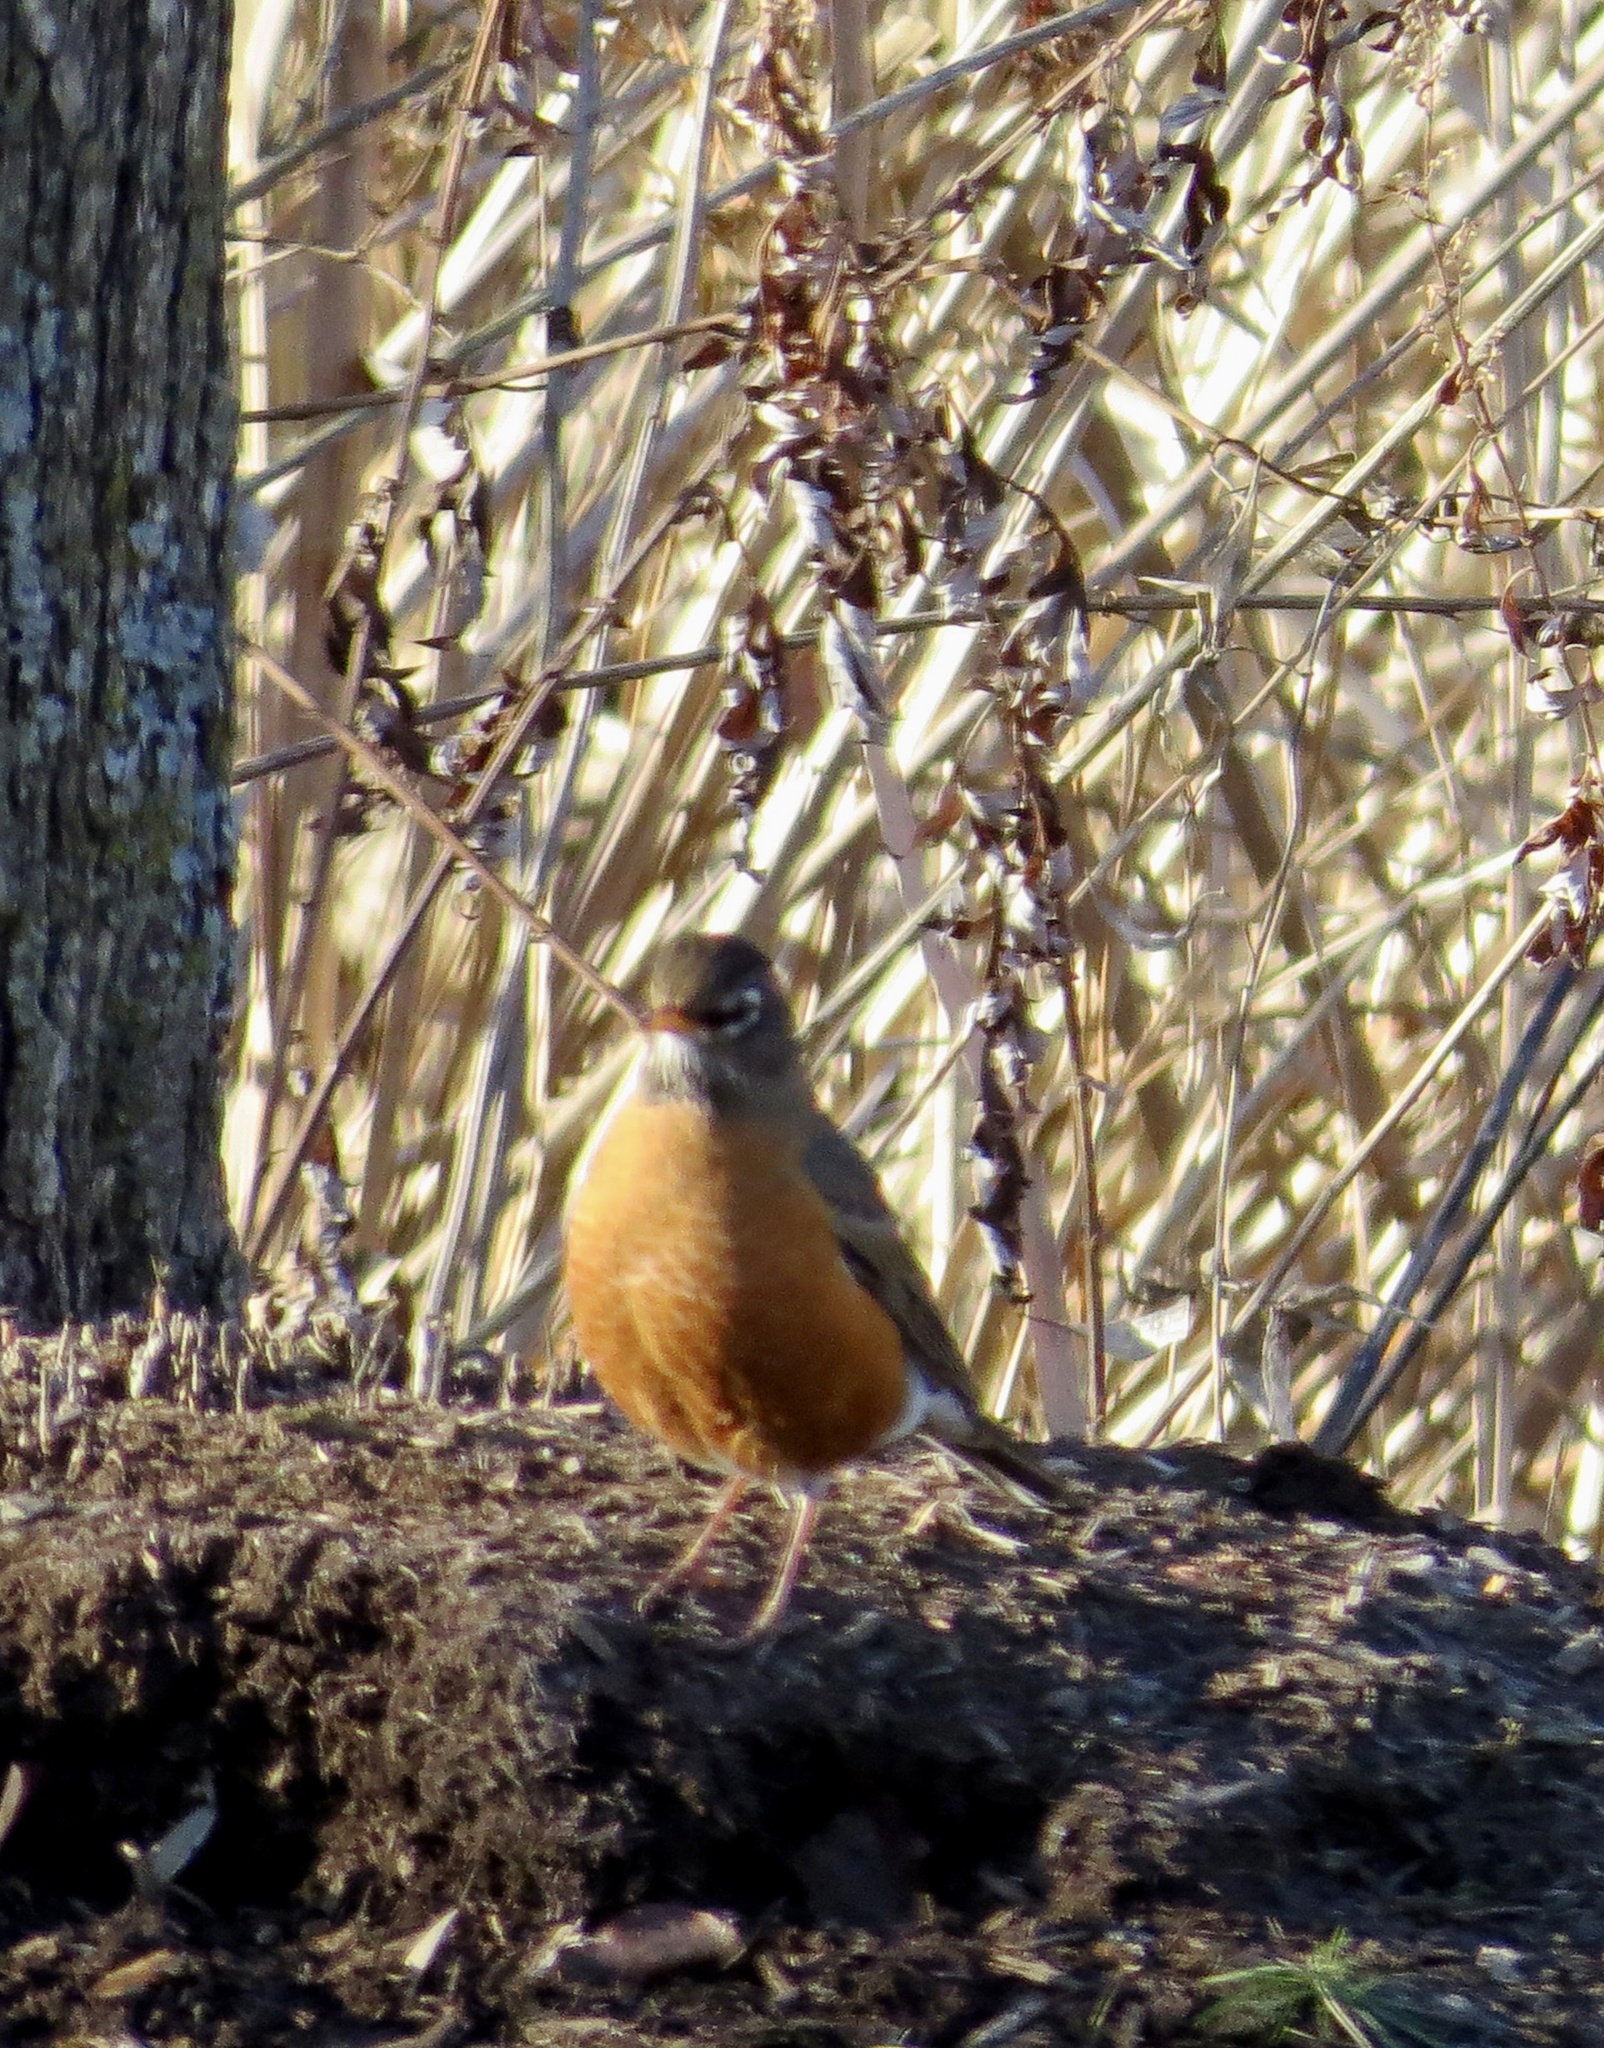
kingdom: Animalia
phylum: Chordata
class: Aves
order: Passeriformes
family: Turdidae
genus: Turdus
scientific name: Turdus migratorius
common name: American robin
